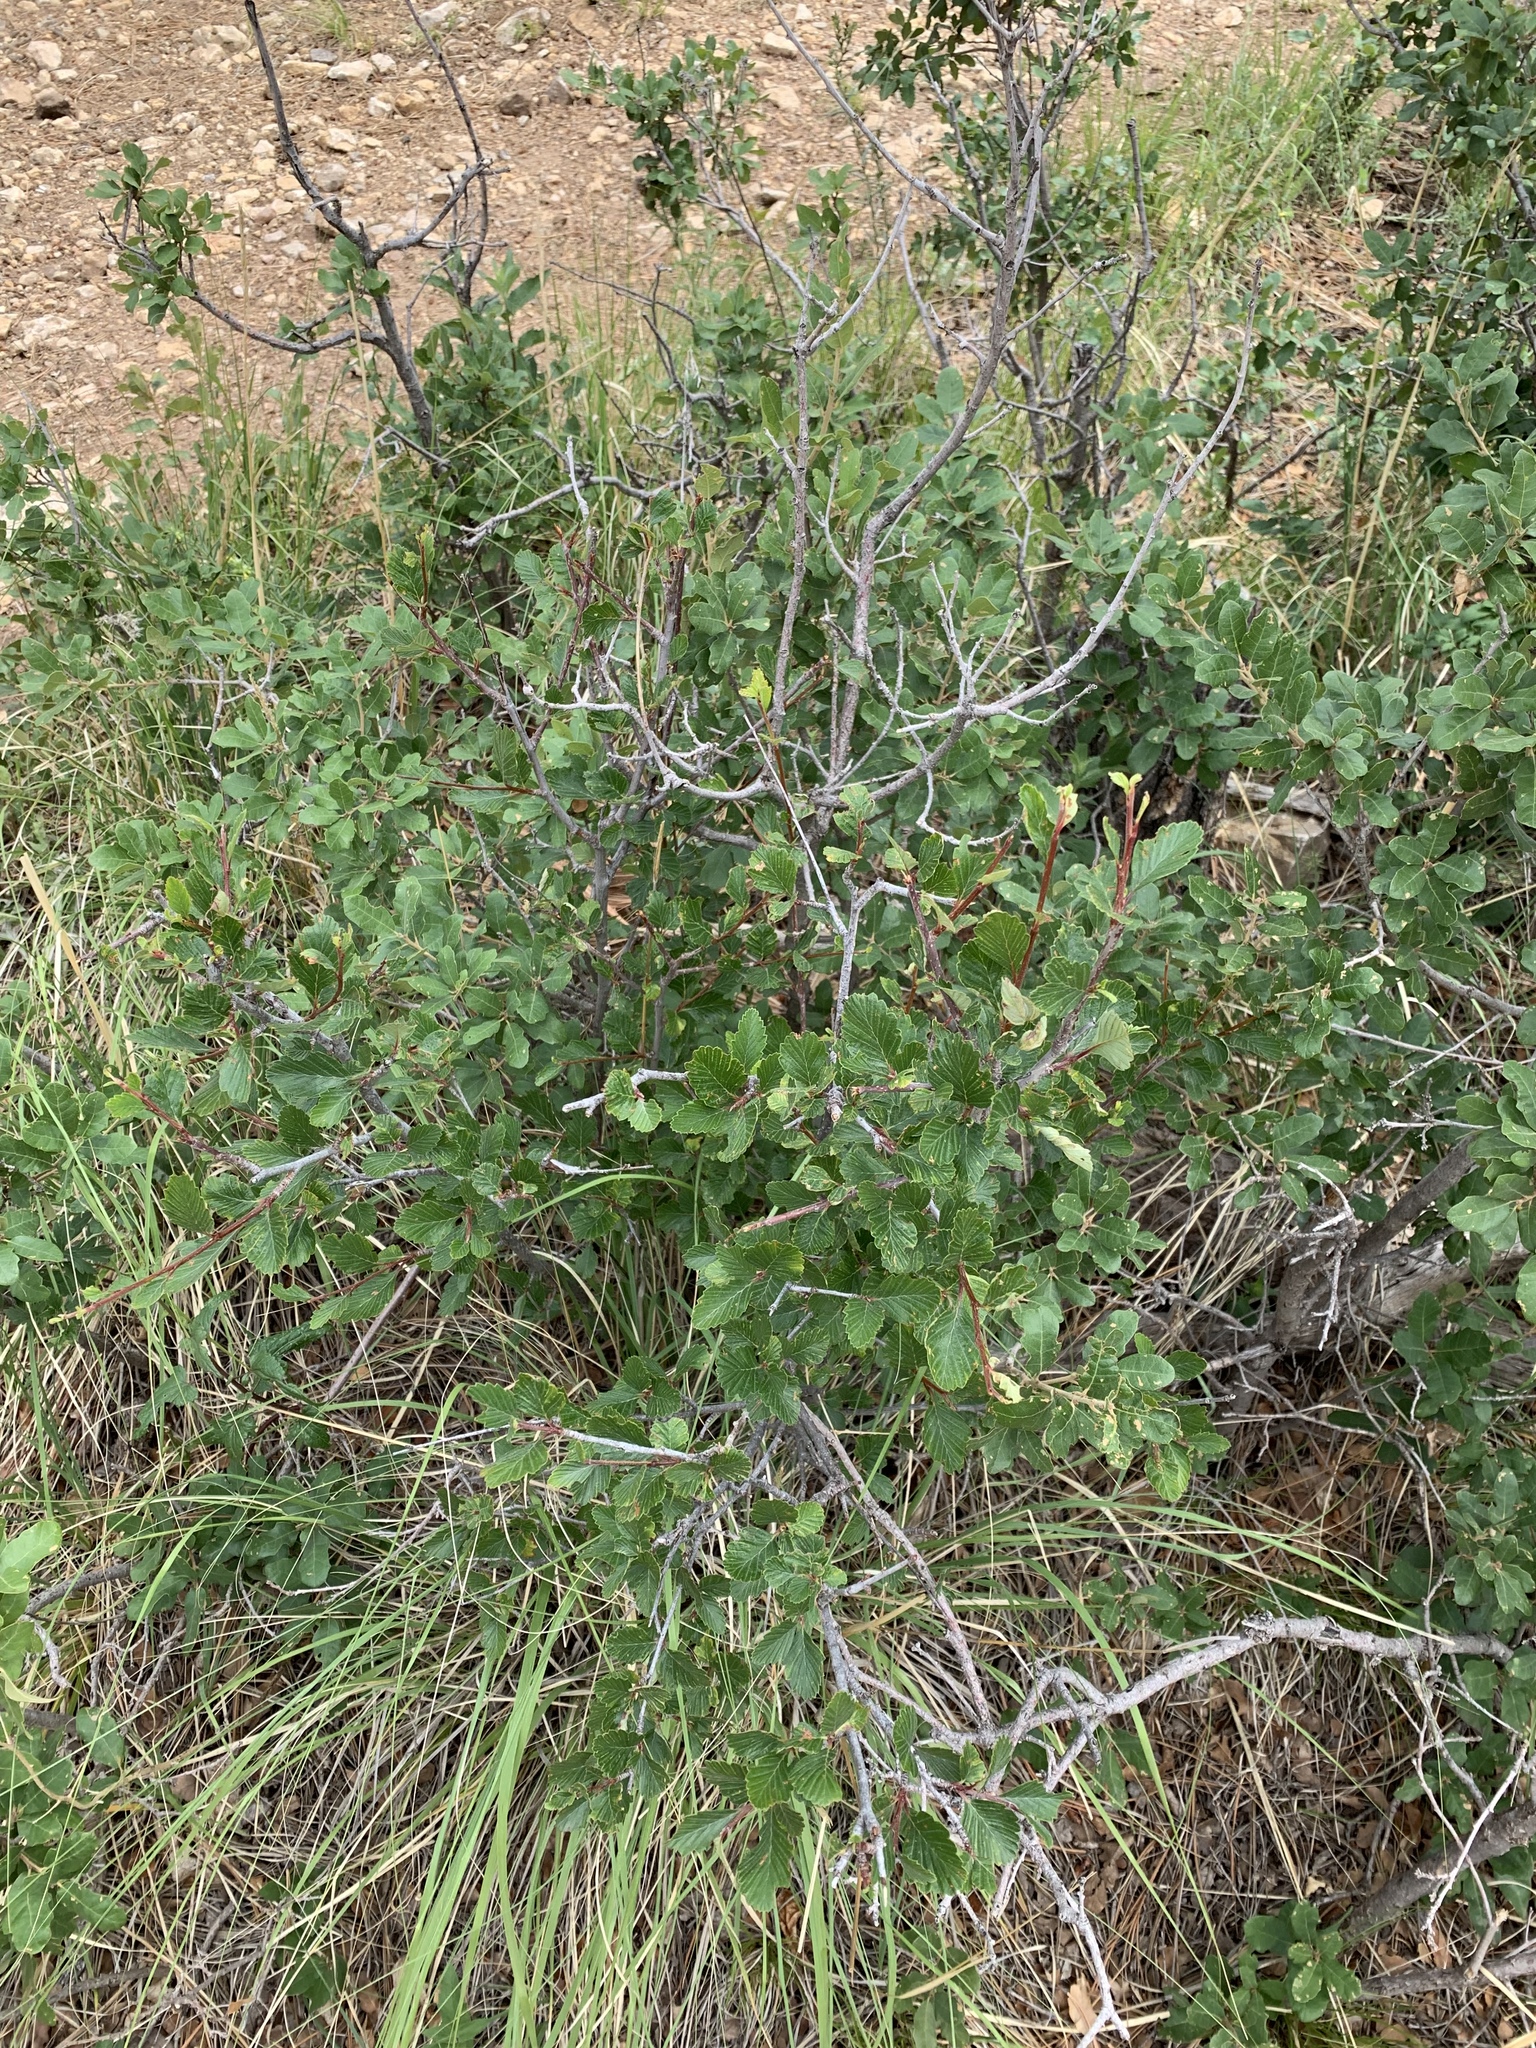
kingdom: Plantae
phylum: Tracheophyta
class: Magnoliopsida
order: Rosales
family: Rosaceae
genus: Cercocarpus
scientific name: Cercocarpus montanus
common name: Alder-leaf cercocarpus
